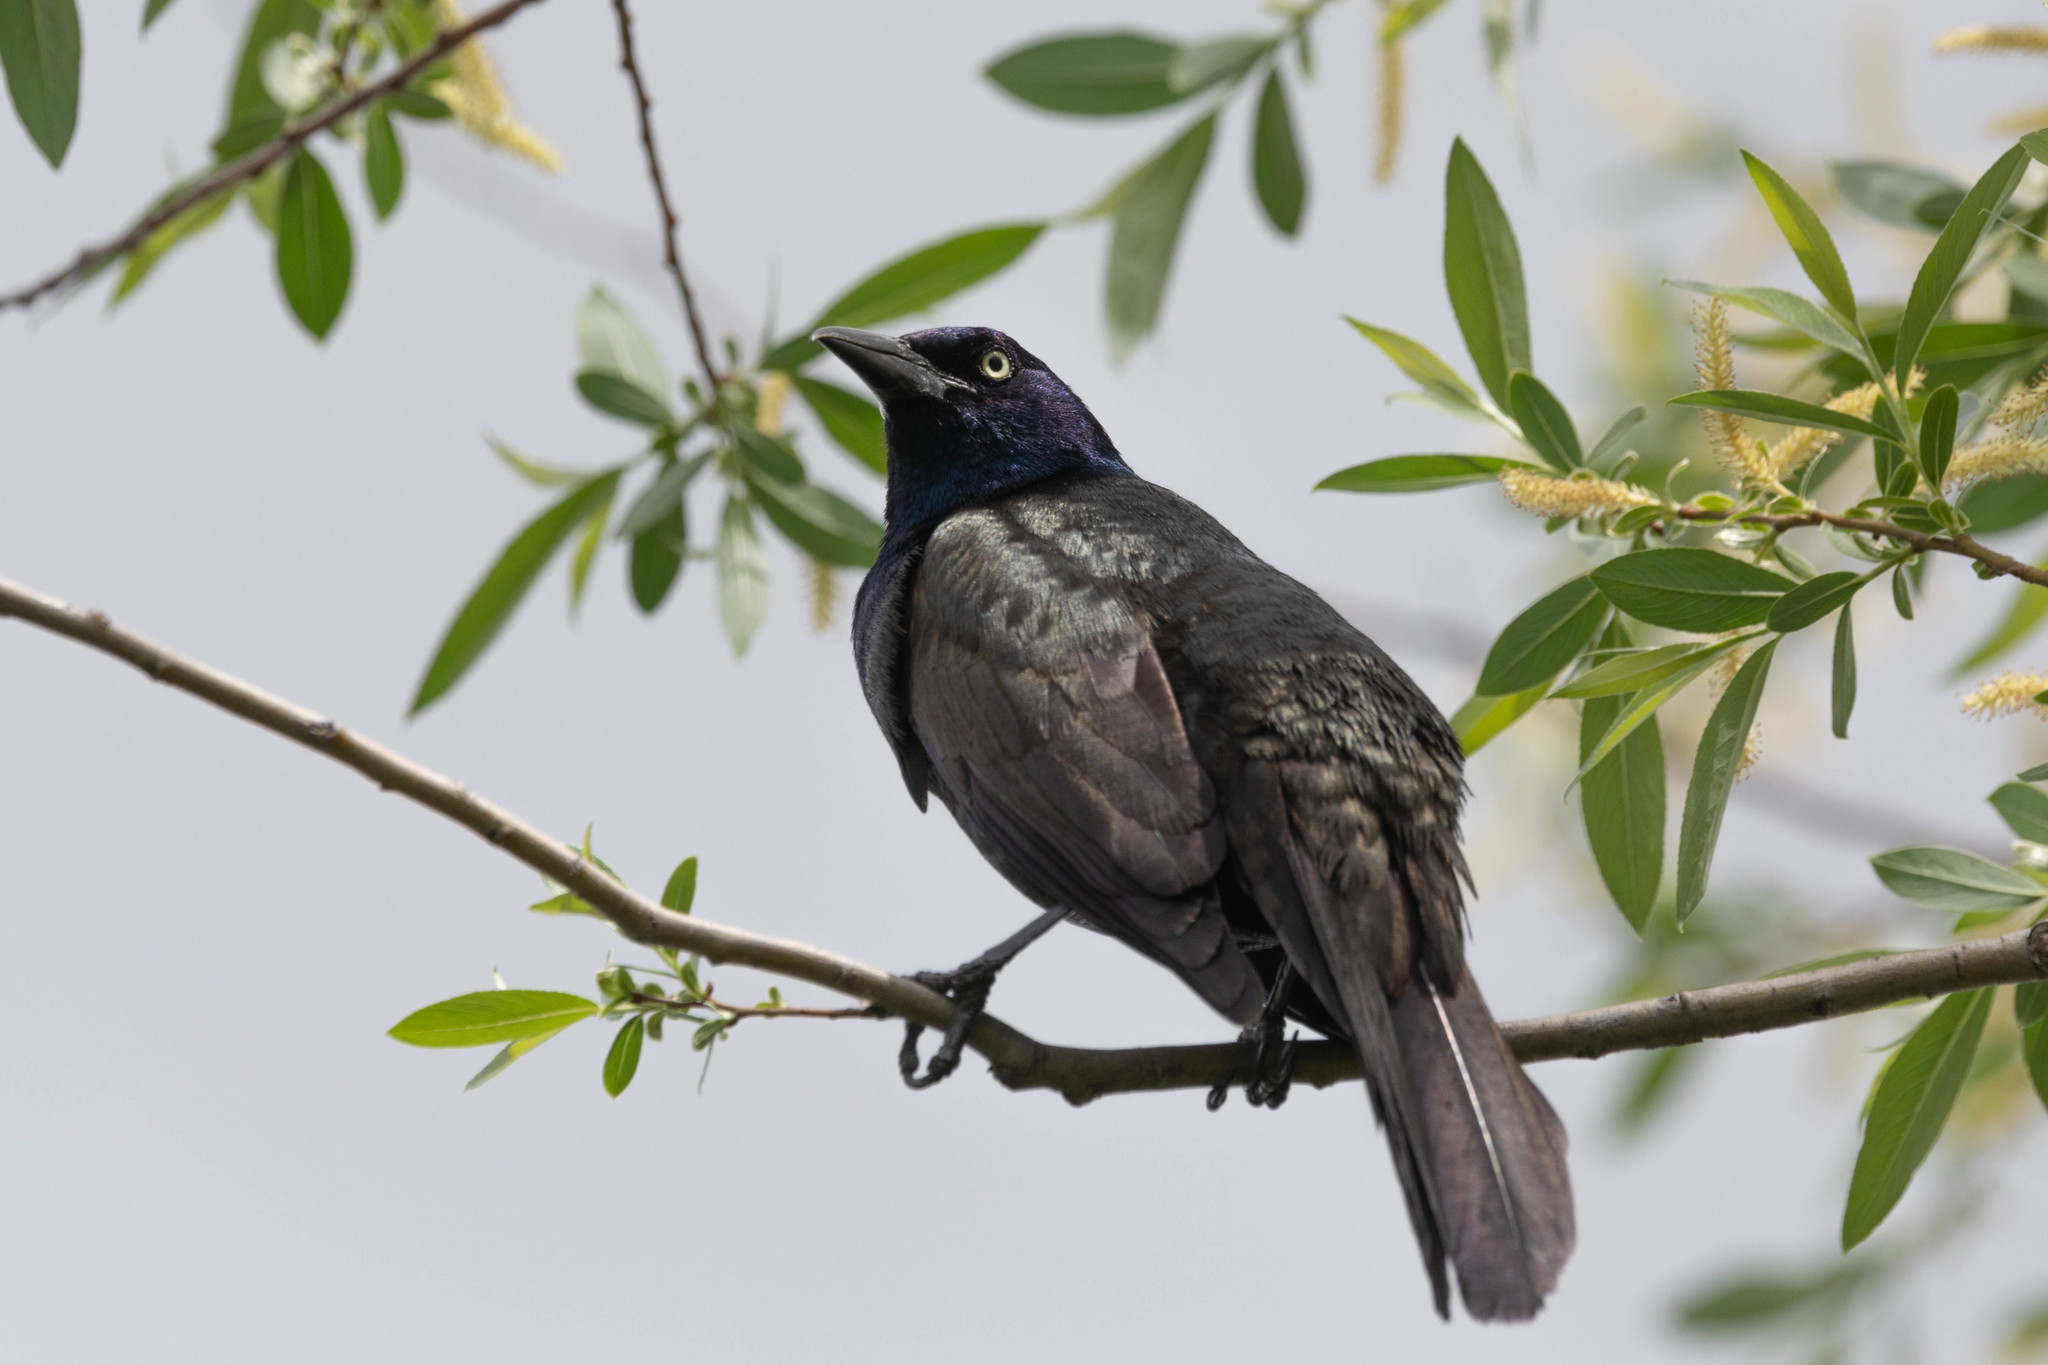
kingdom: Animalia
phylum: Chordata
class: Aves
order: Passeriformes
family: Icteridae
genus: Quiscalus
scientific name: Quiscalus quiscula
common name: Common grackle
